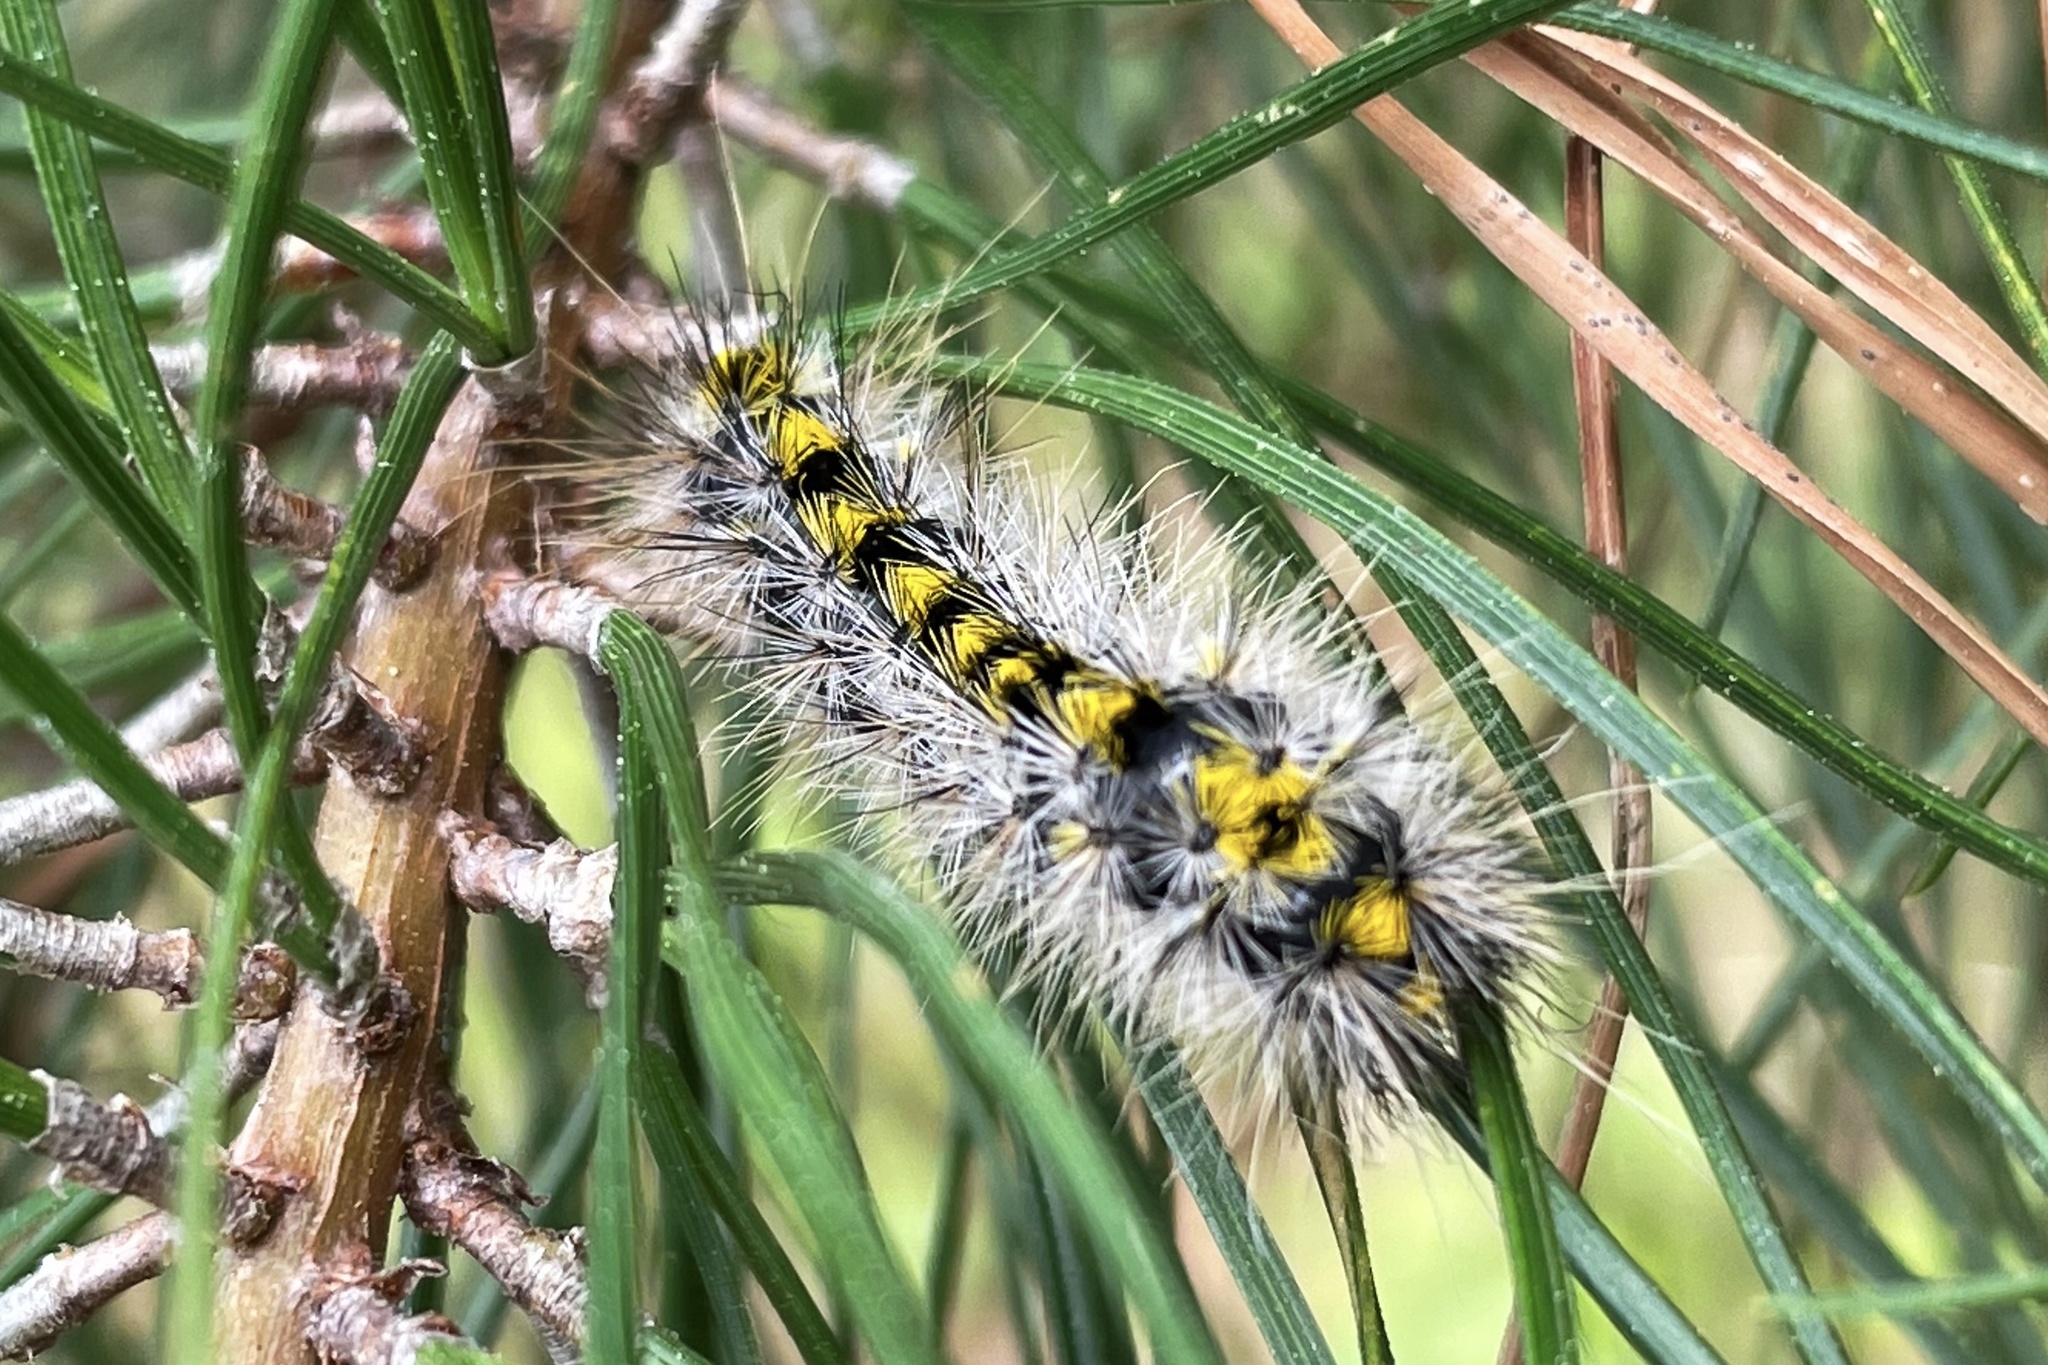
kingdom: Animalia
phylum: Arthropoda
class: Insecta
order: Lepidoptera
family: Erebidae
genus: Lophocampa
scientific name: Lophocampa sobrina
